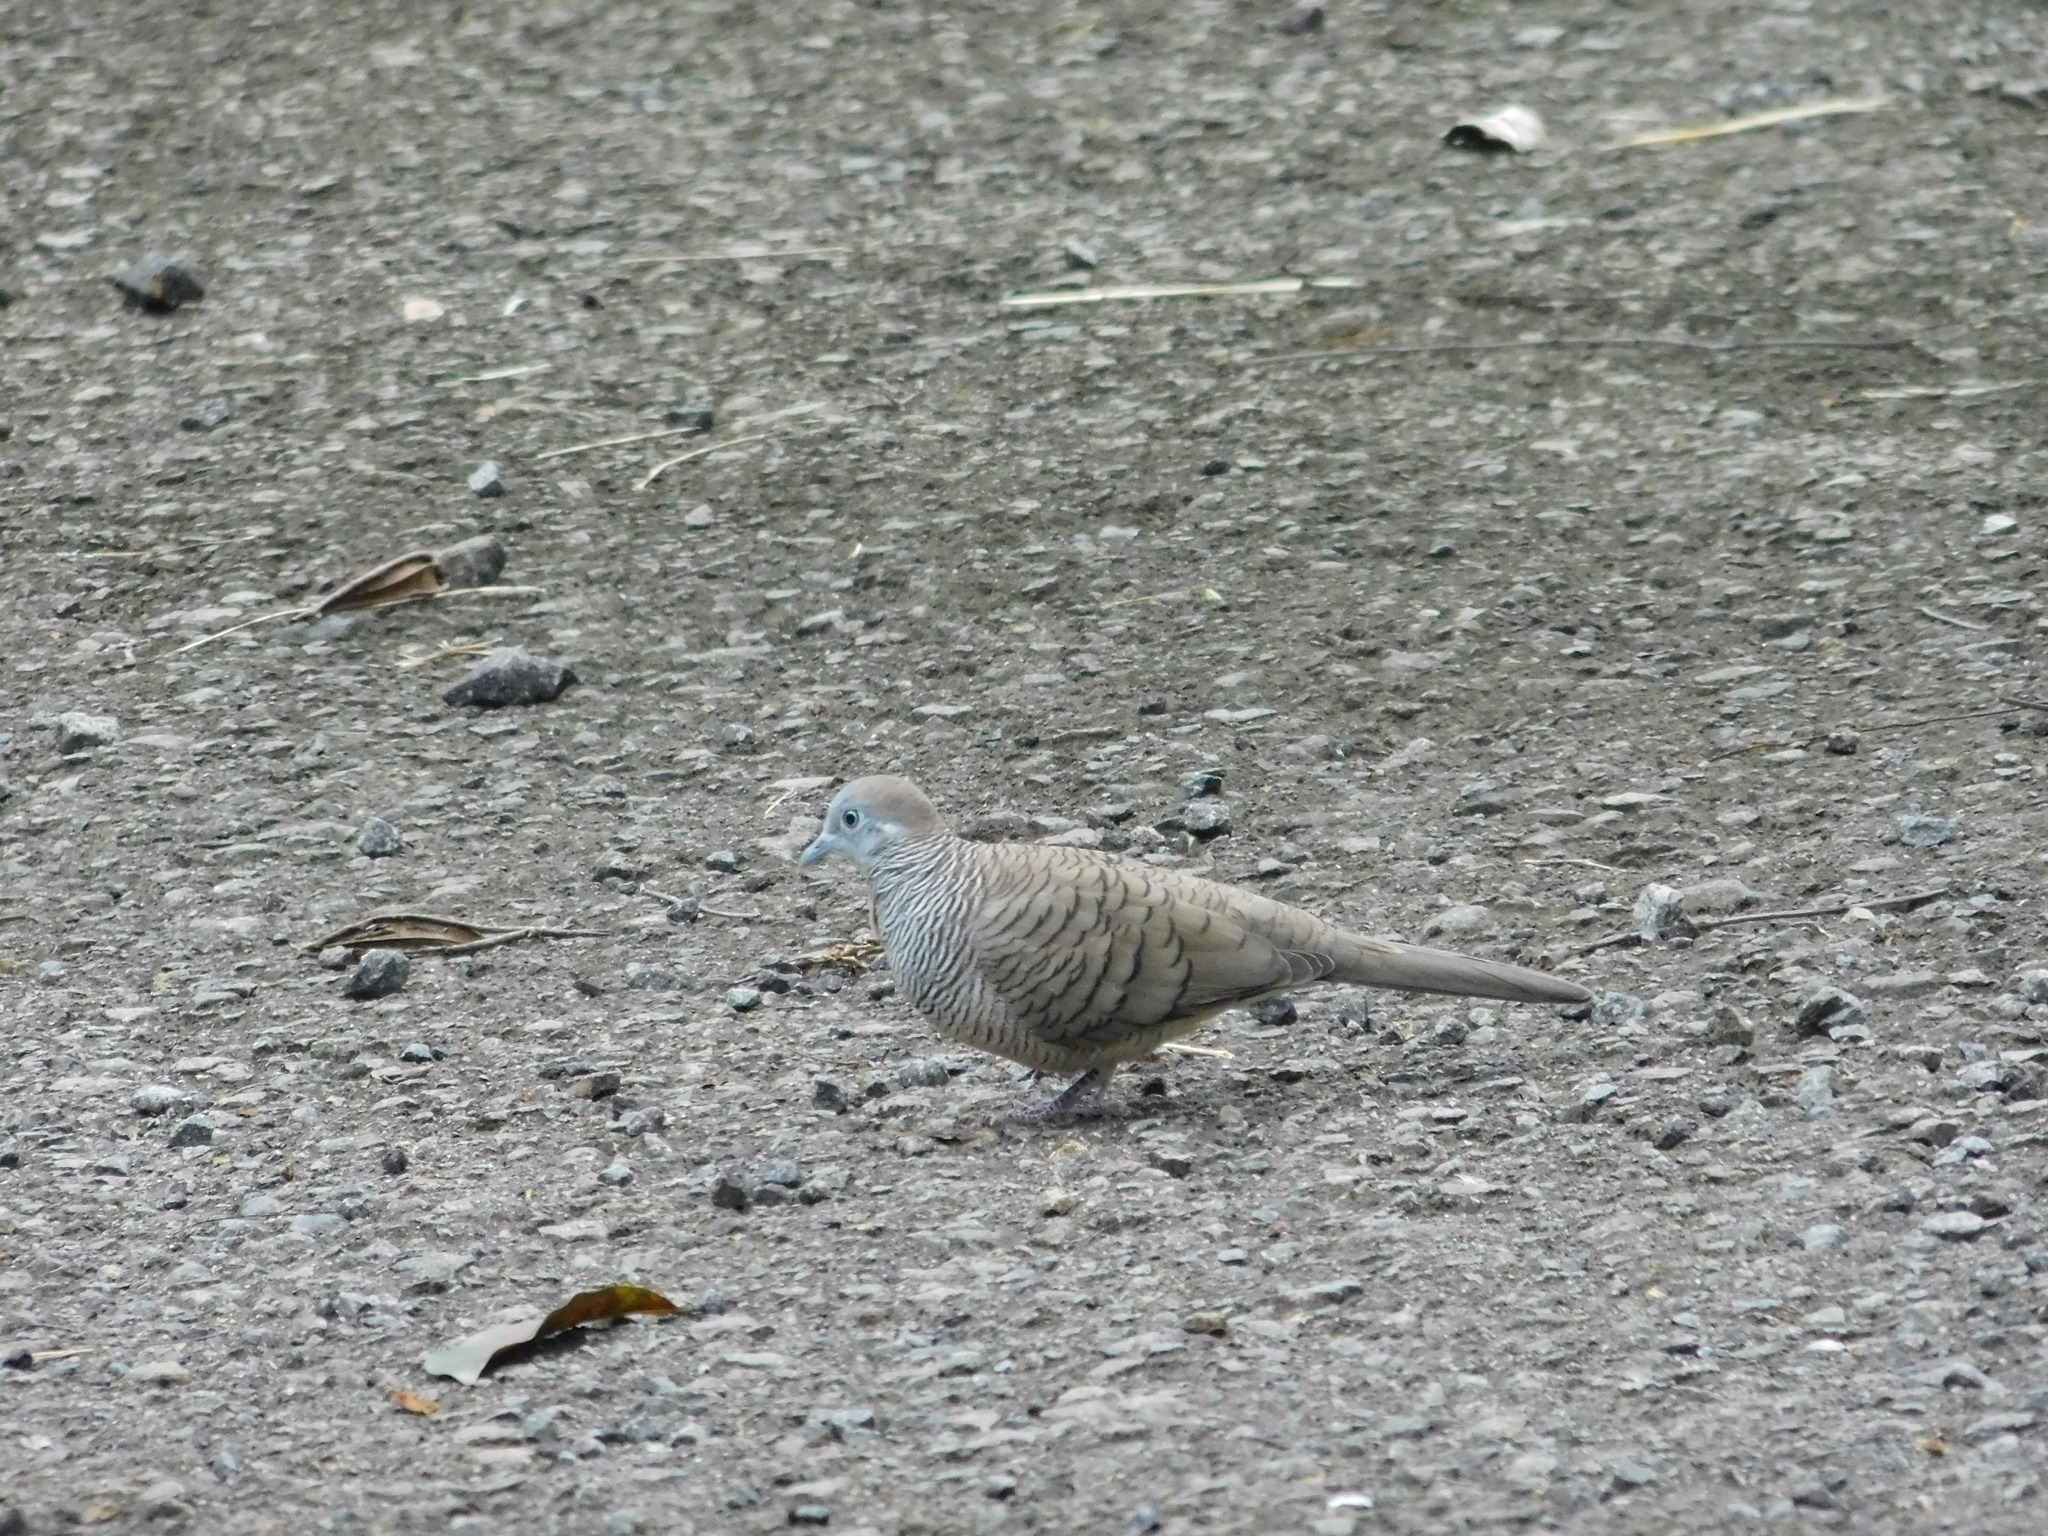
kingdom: Animalia
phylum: Chordata
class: Aves
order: Columbiformes
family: Columbidae
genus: Geopelia
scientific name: Geopelia striata
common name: Zebra dove
